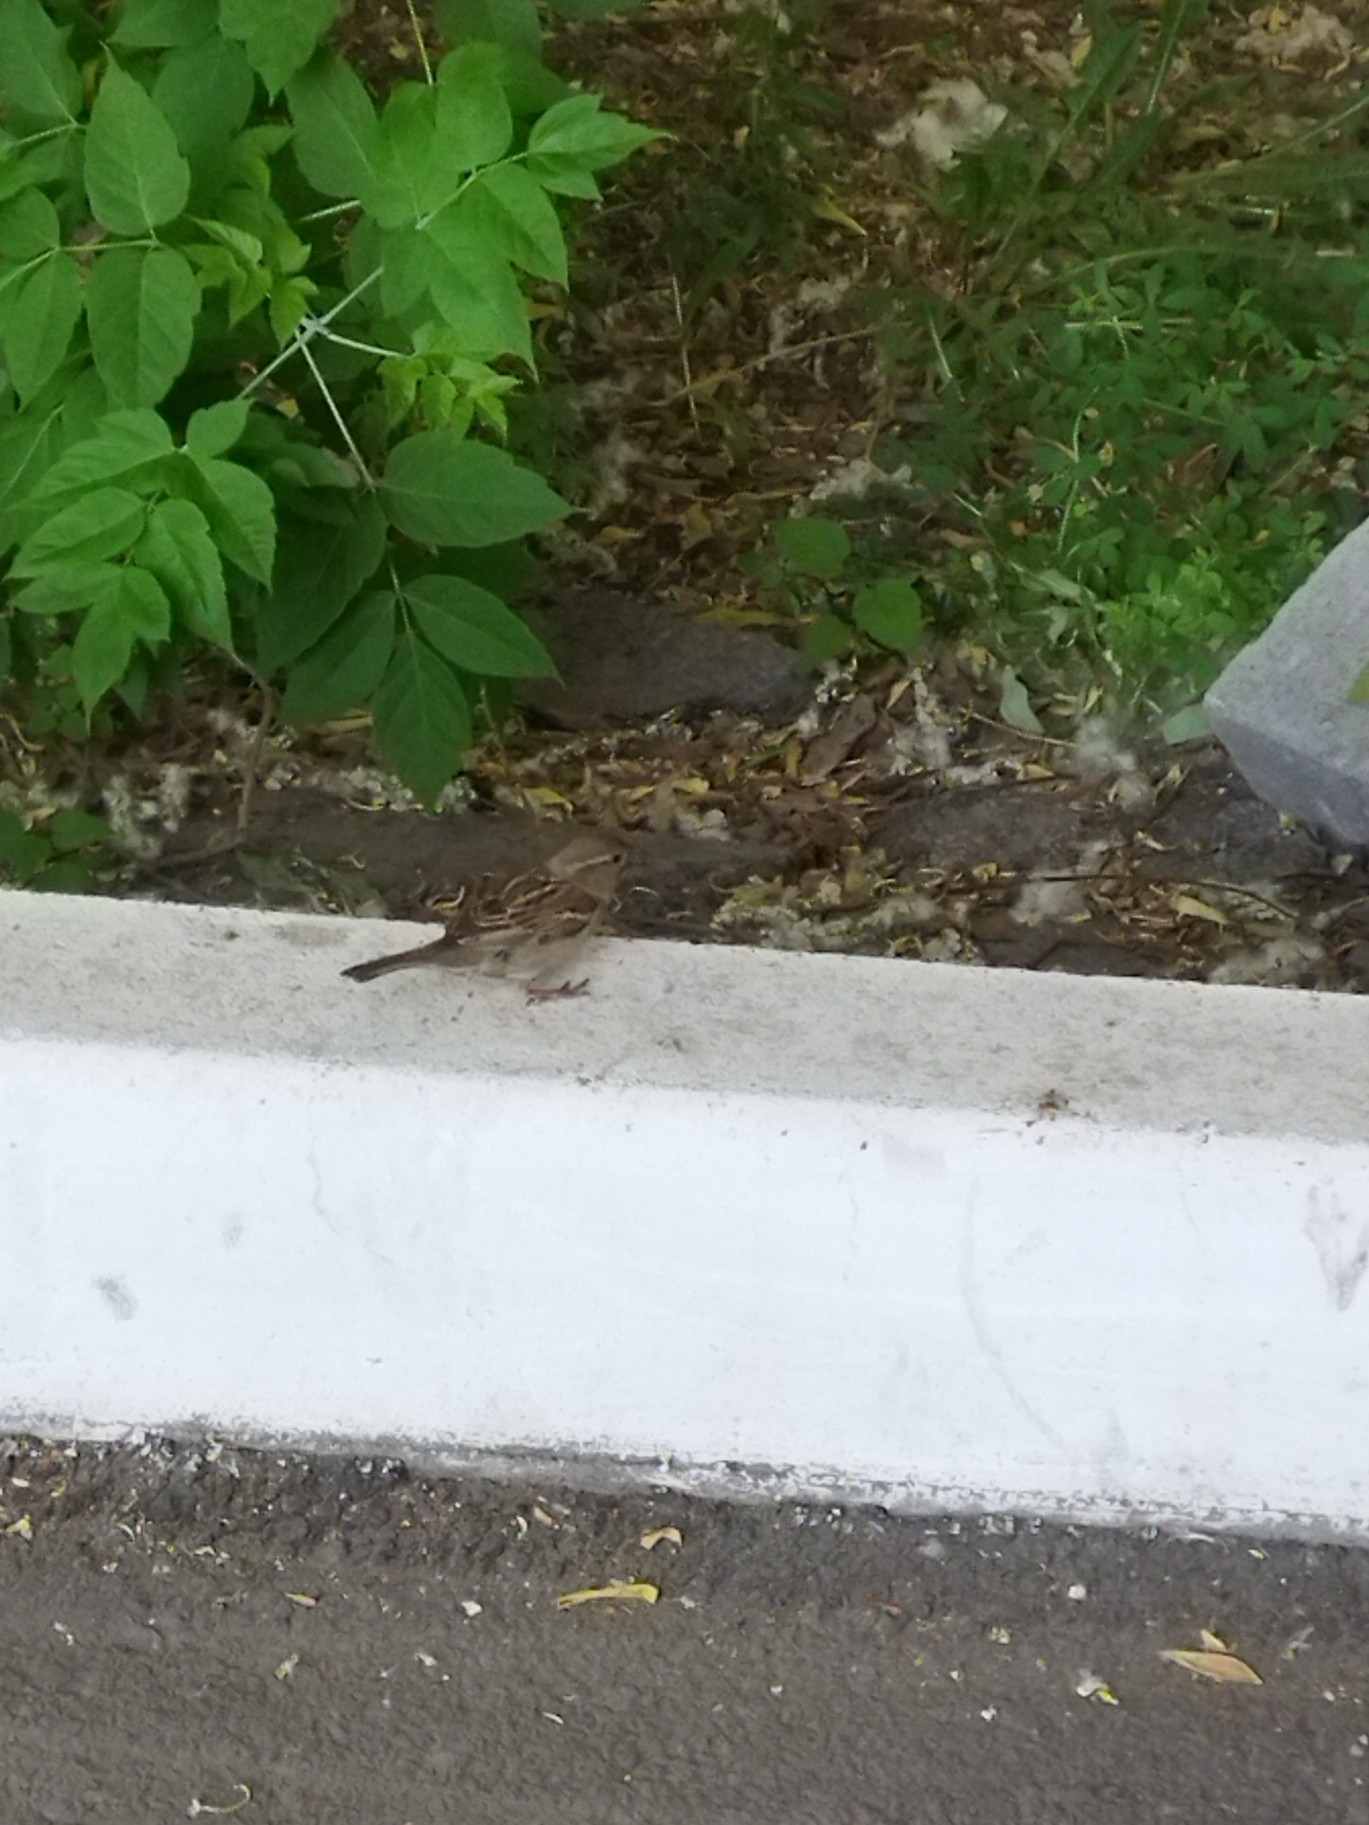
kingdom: Animalia
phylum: Chordata
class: Aves
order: Passeriformes
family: Passeridae
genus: Passer
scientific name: Passer domesticus
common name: House sparrow
